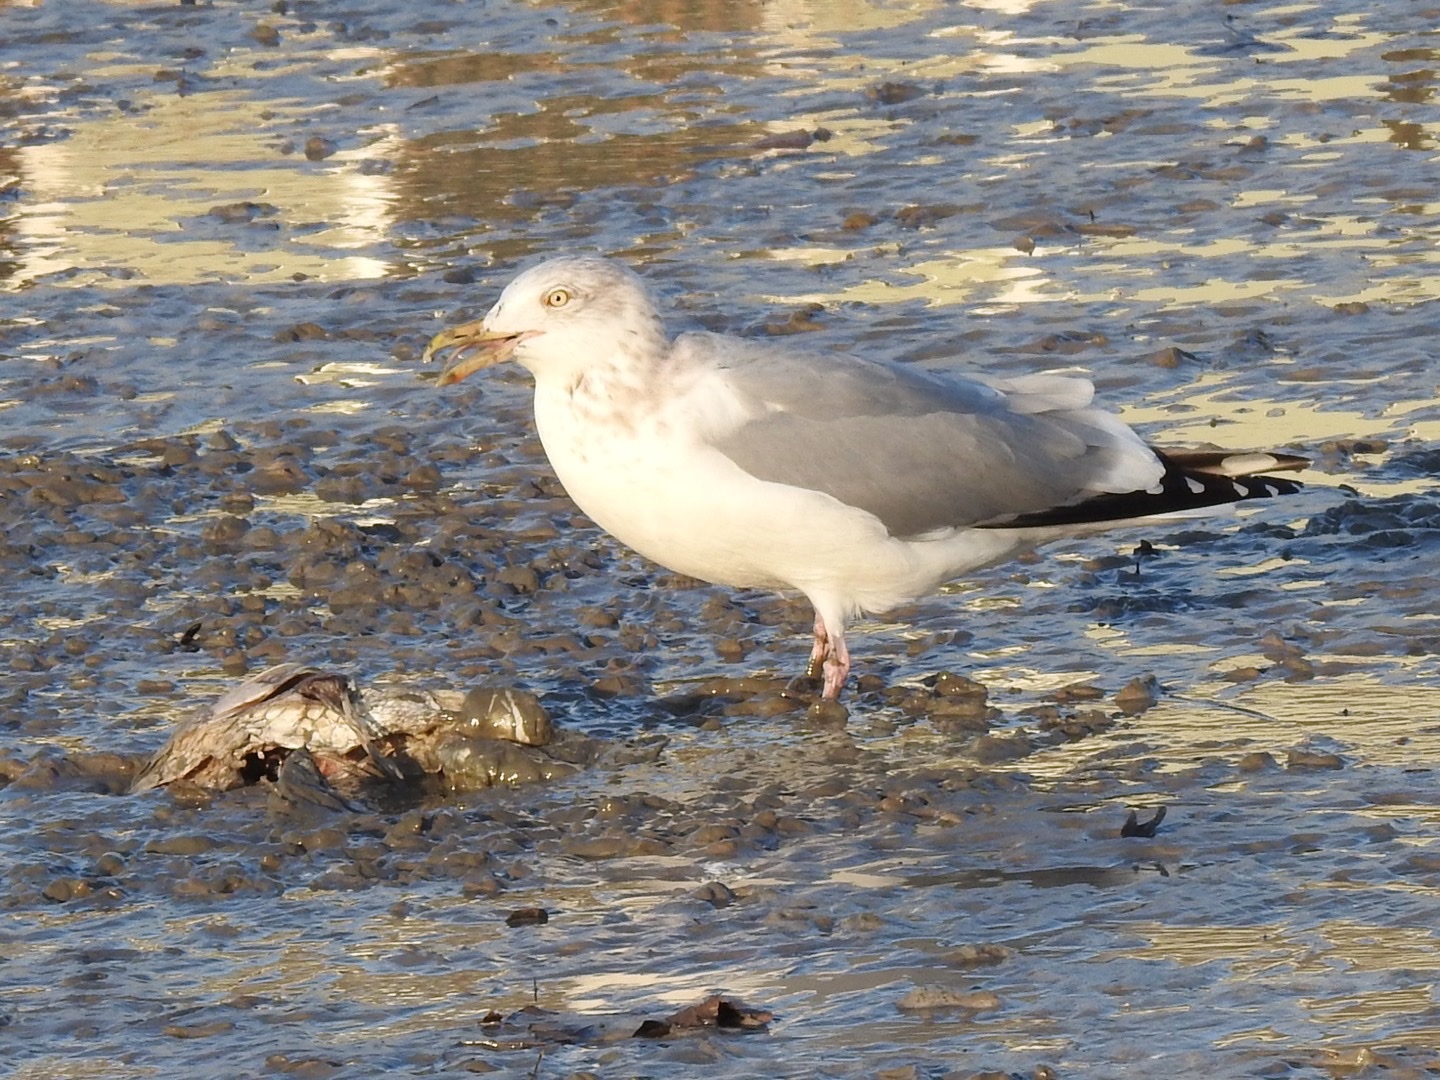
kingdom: Animalia
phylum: Chordata
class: Aves
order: Charadriiformes
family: Laridae
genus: Larus
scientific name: Larus argentatus
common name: Herring gull
